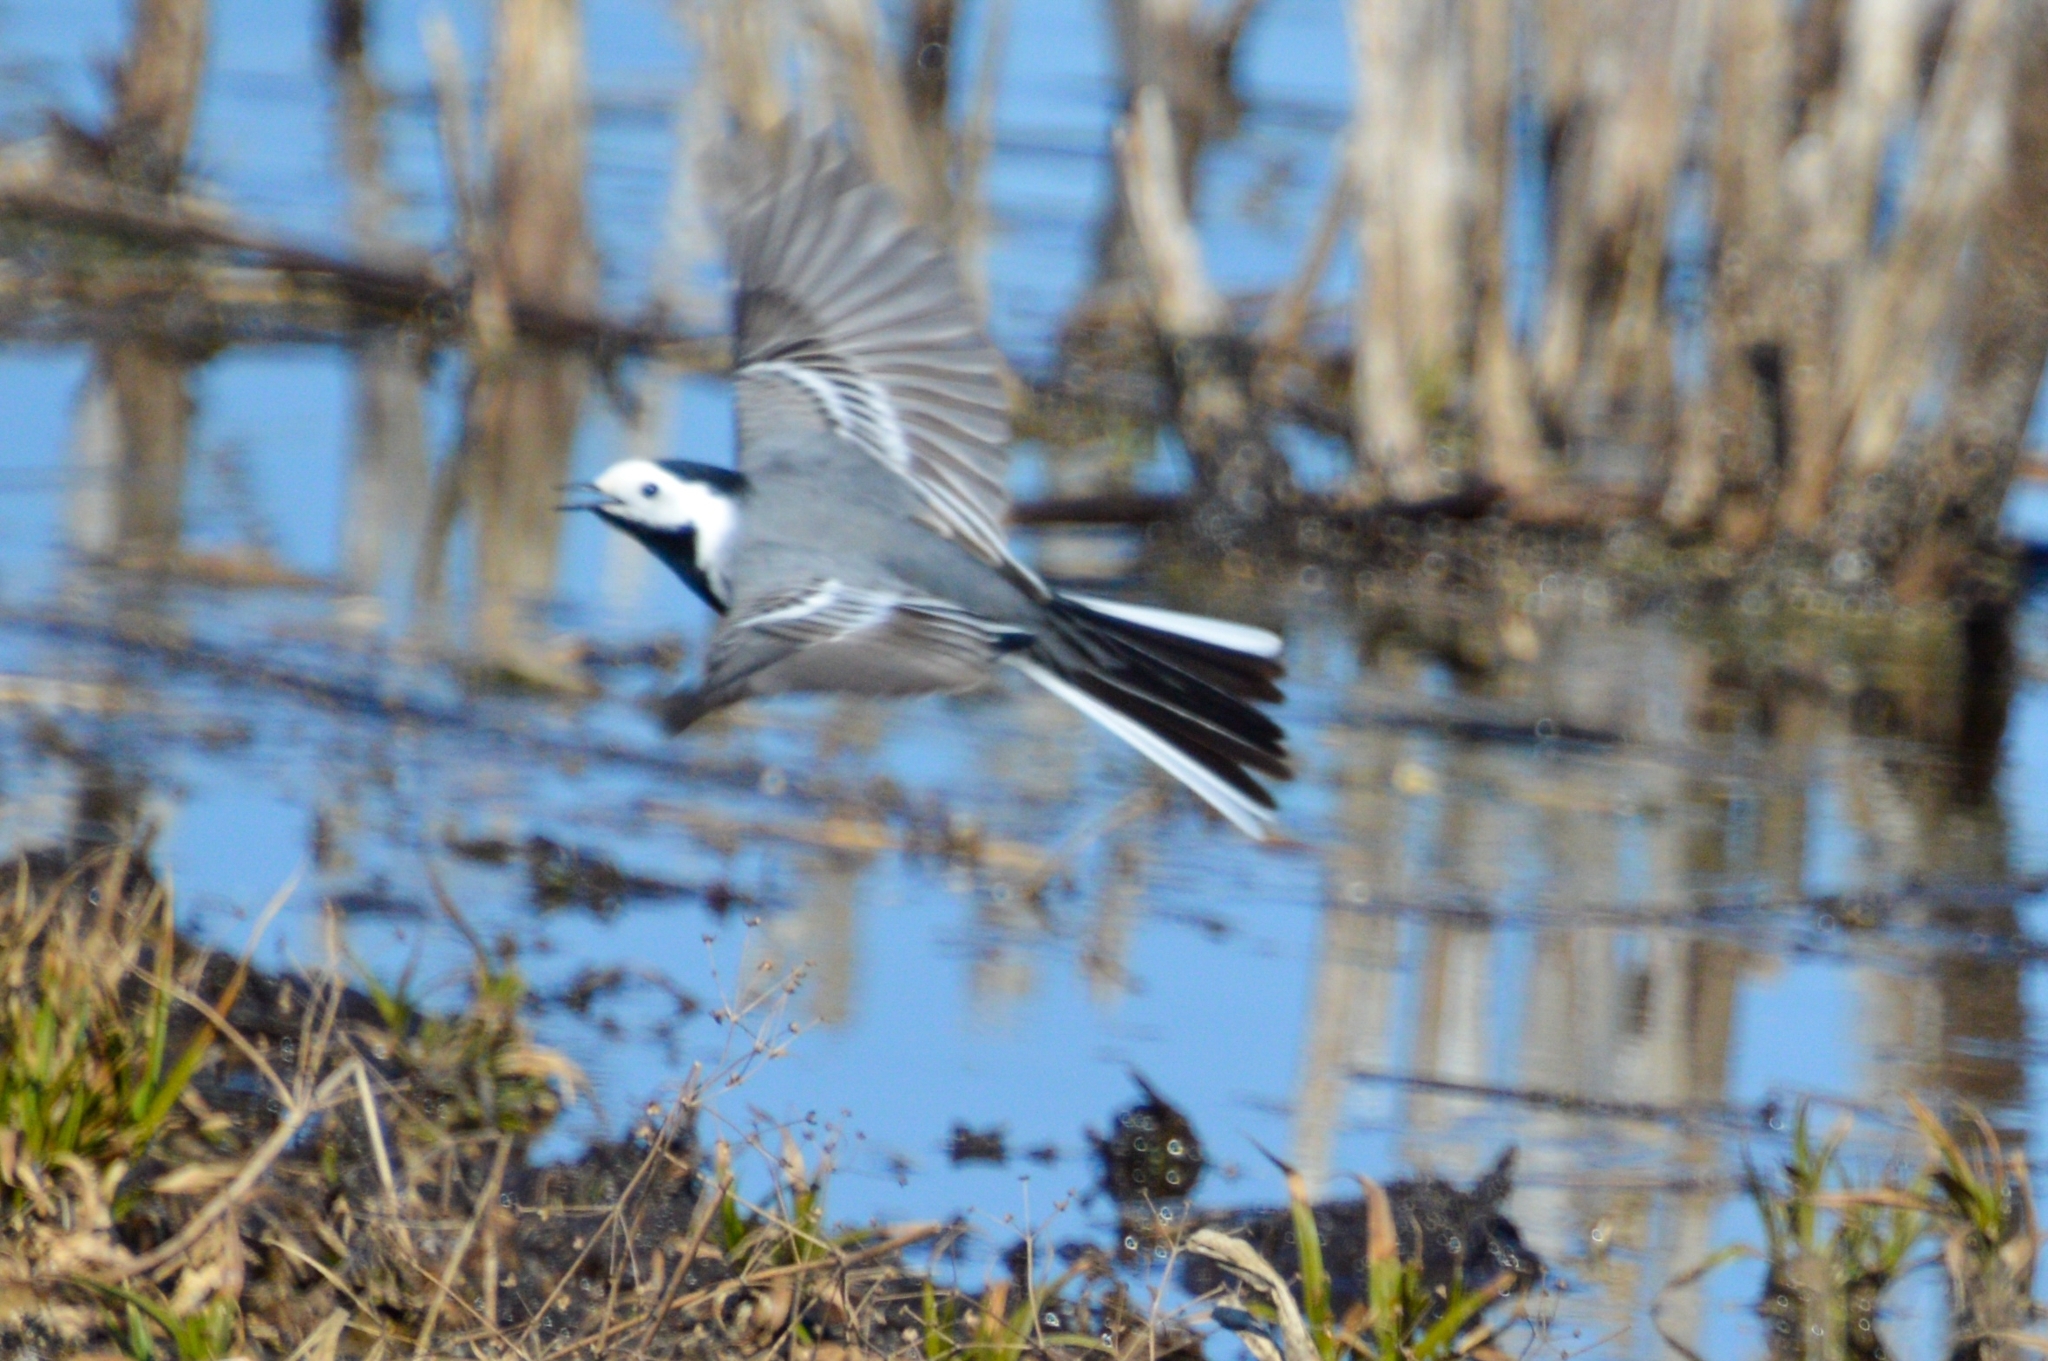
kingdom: Animalia
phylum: Chordata
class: Aves
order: Passeriformes
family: Motacillidae
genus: Motacilla
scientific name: Motacilla alba
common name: White wagtail
